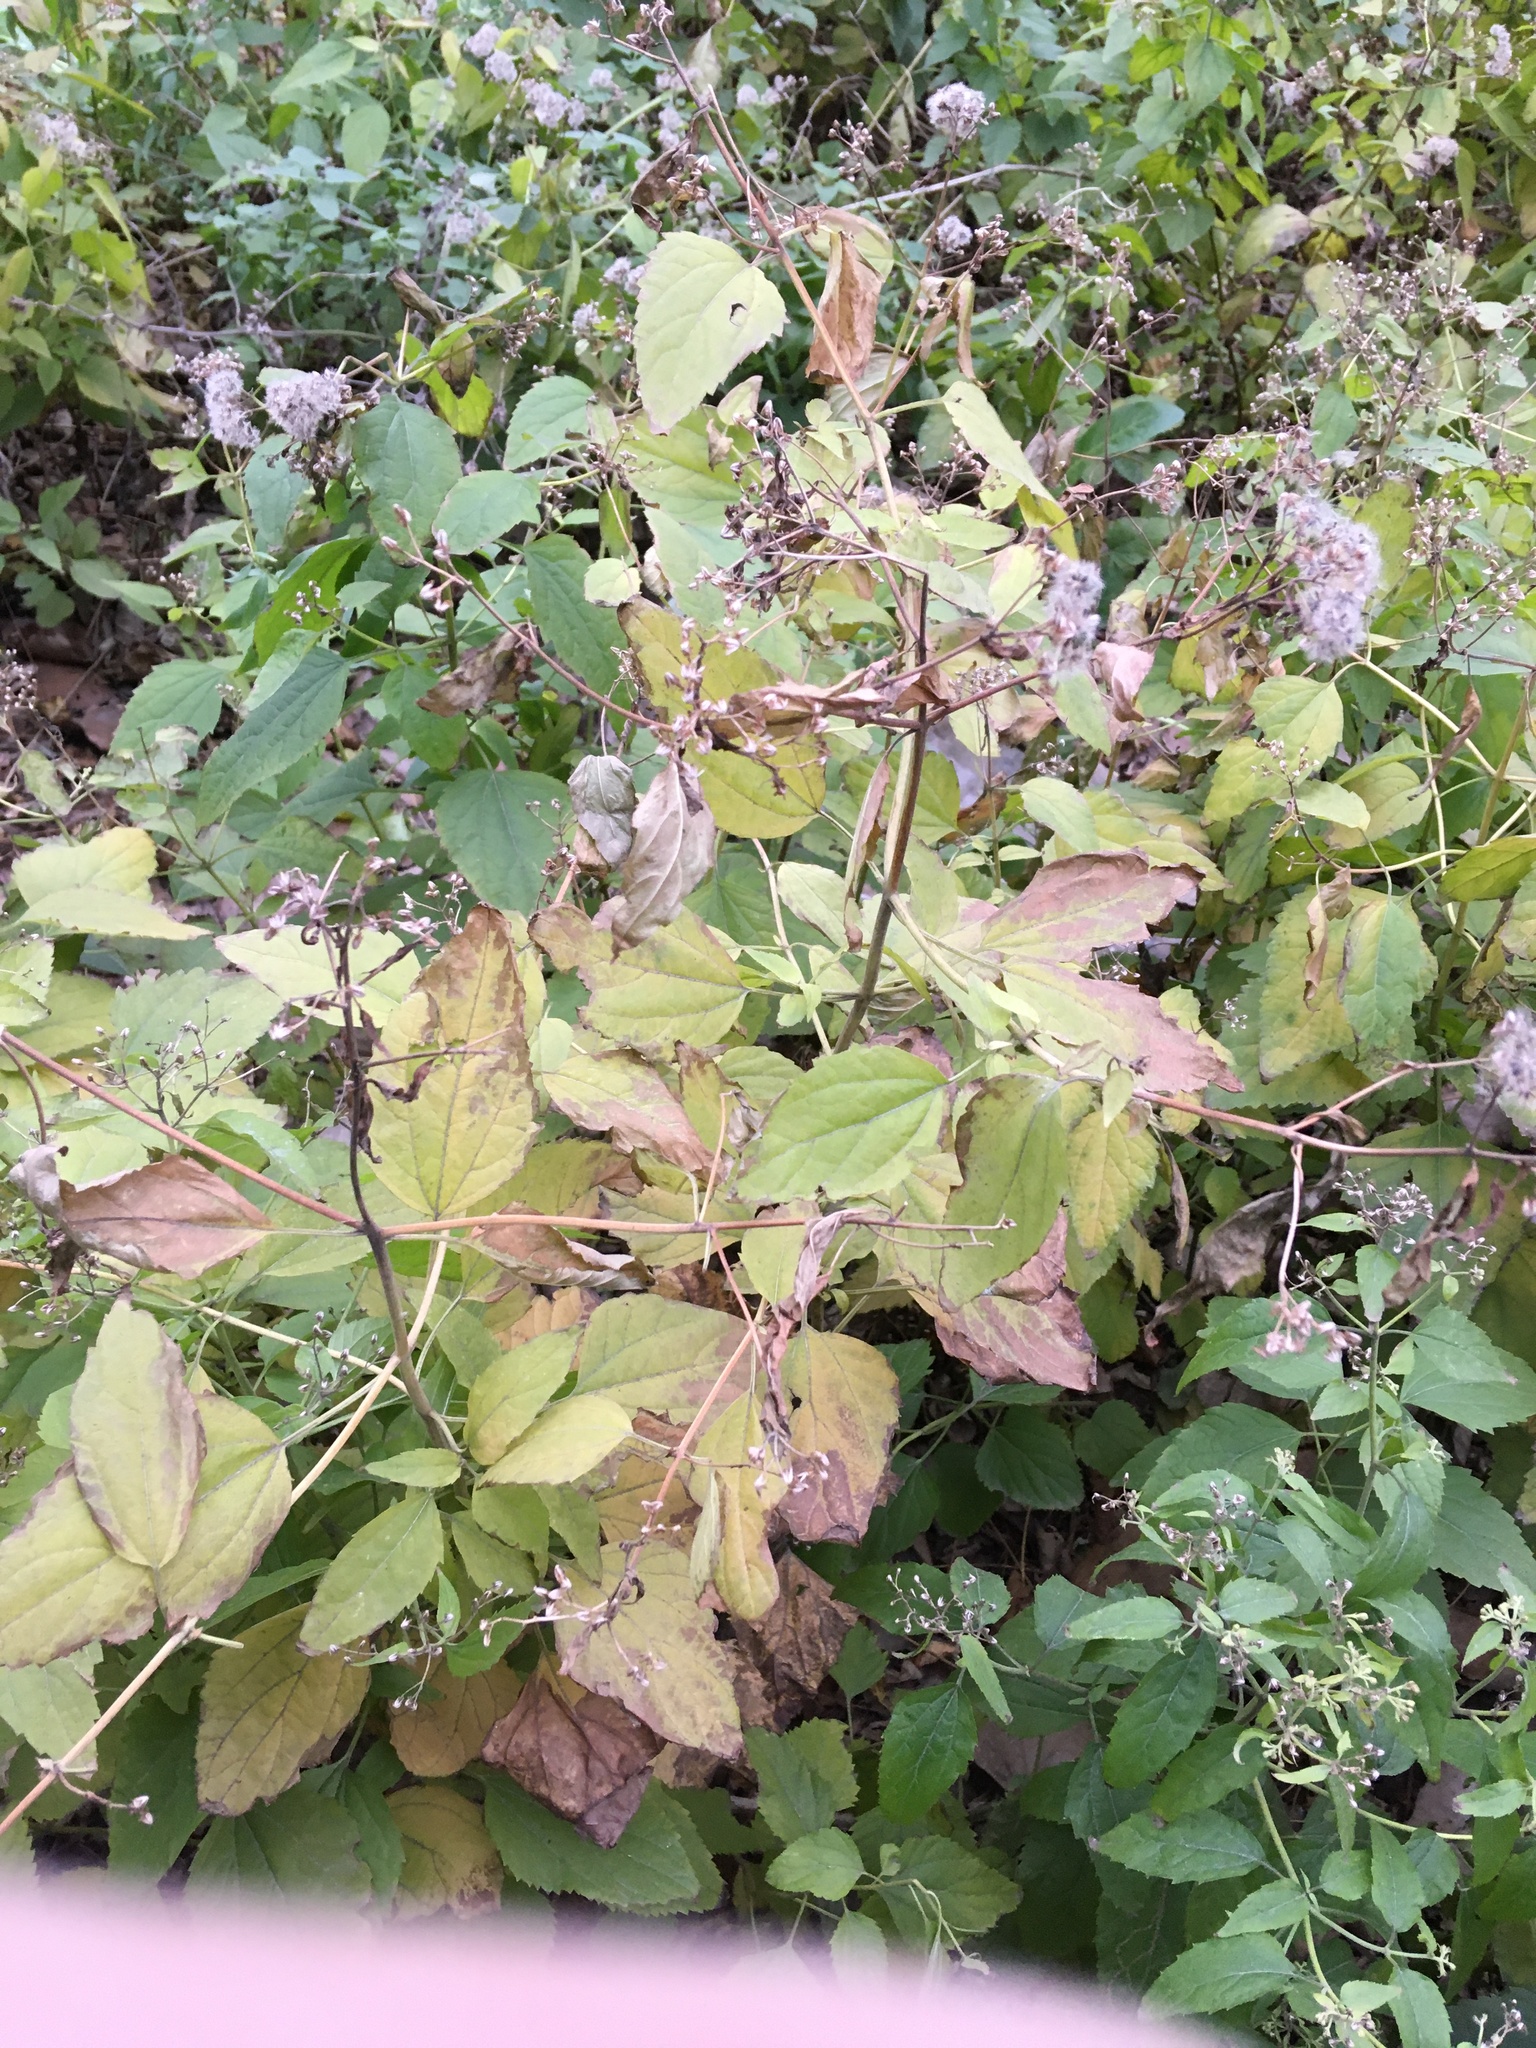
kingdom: Plantae
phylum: Tracheophyta
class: Magnoliopsida
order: Asterales
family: Asteraceae
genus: Ageratina
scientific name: Ageratina altissima
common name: White snakeroot
